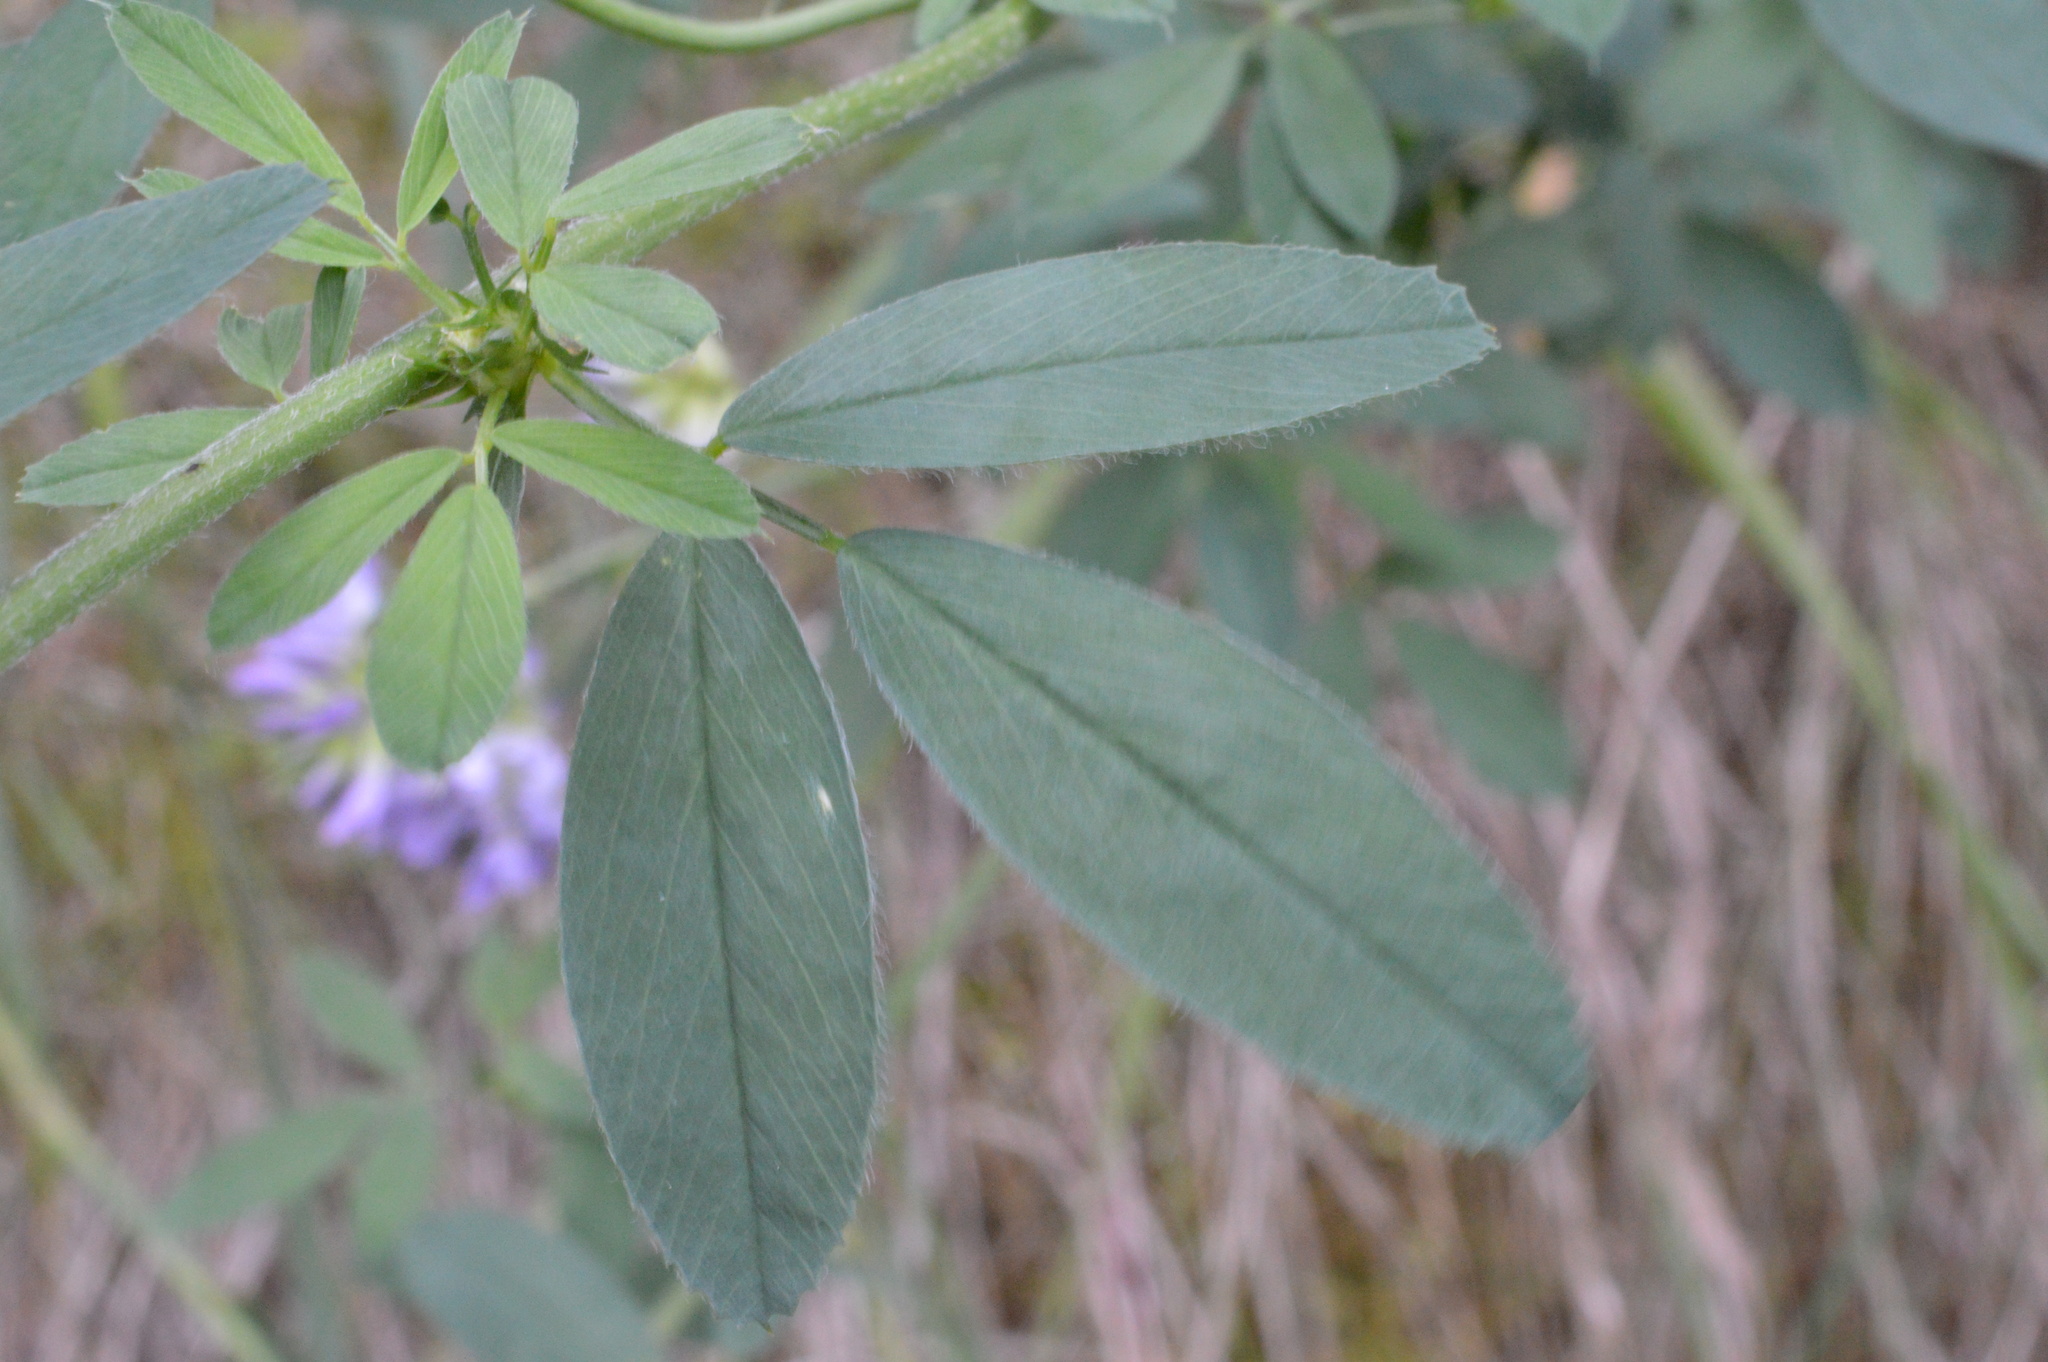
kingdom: Plantae
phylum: Tracheophyta
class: Magnoliopsida
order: Fabales
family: Fabaceae
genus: Medicago
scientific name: Medicago sativa
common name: Alfalfa
